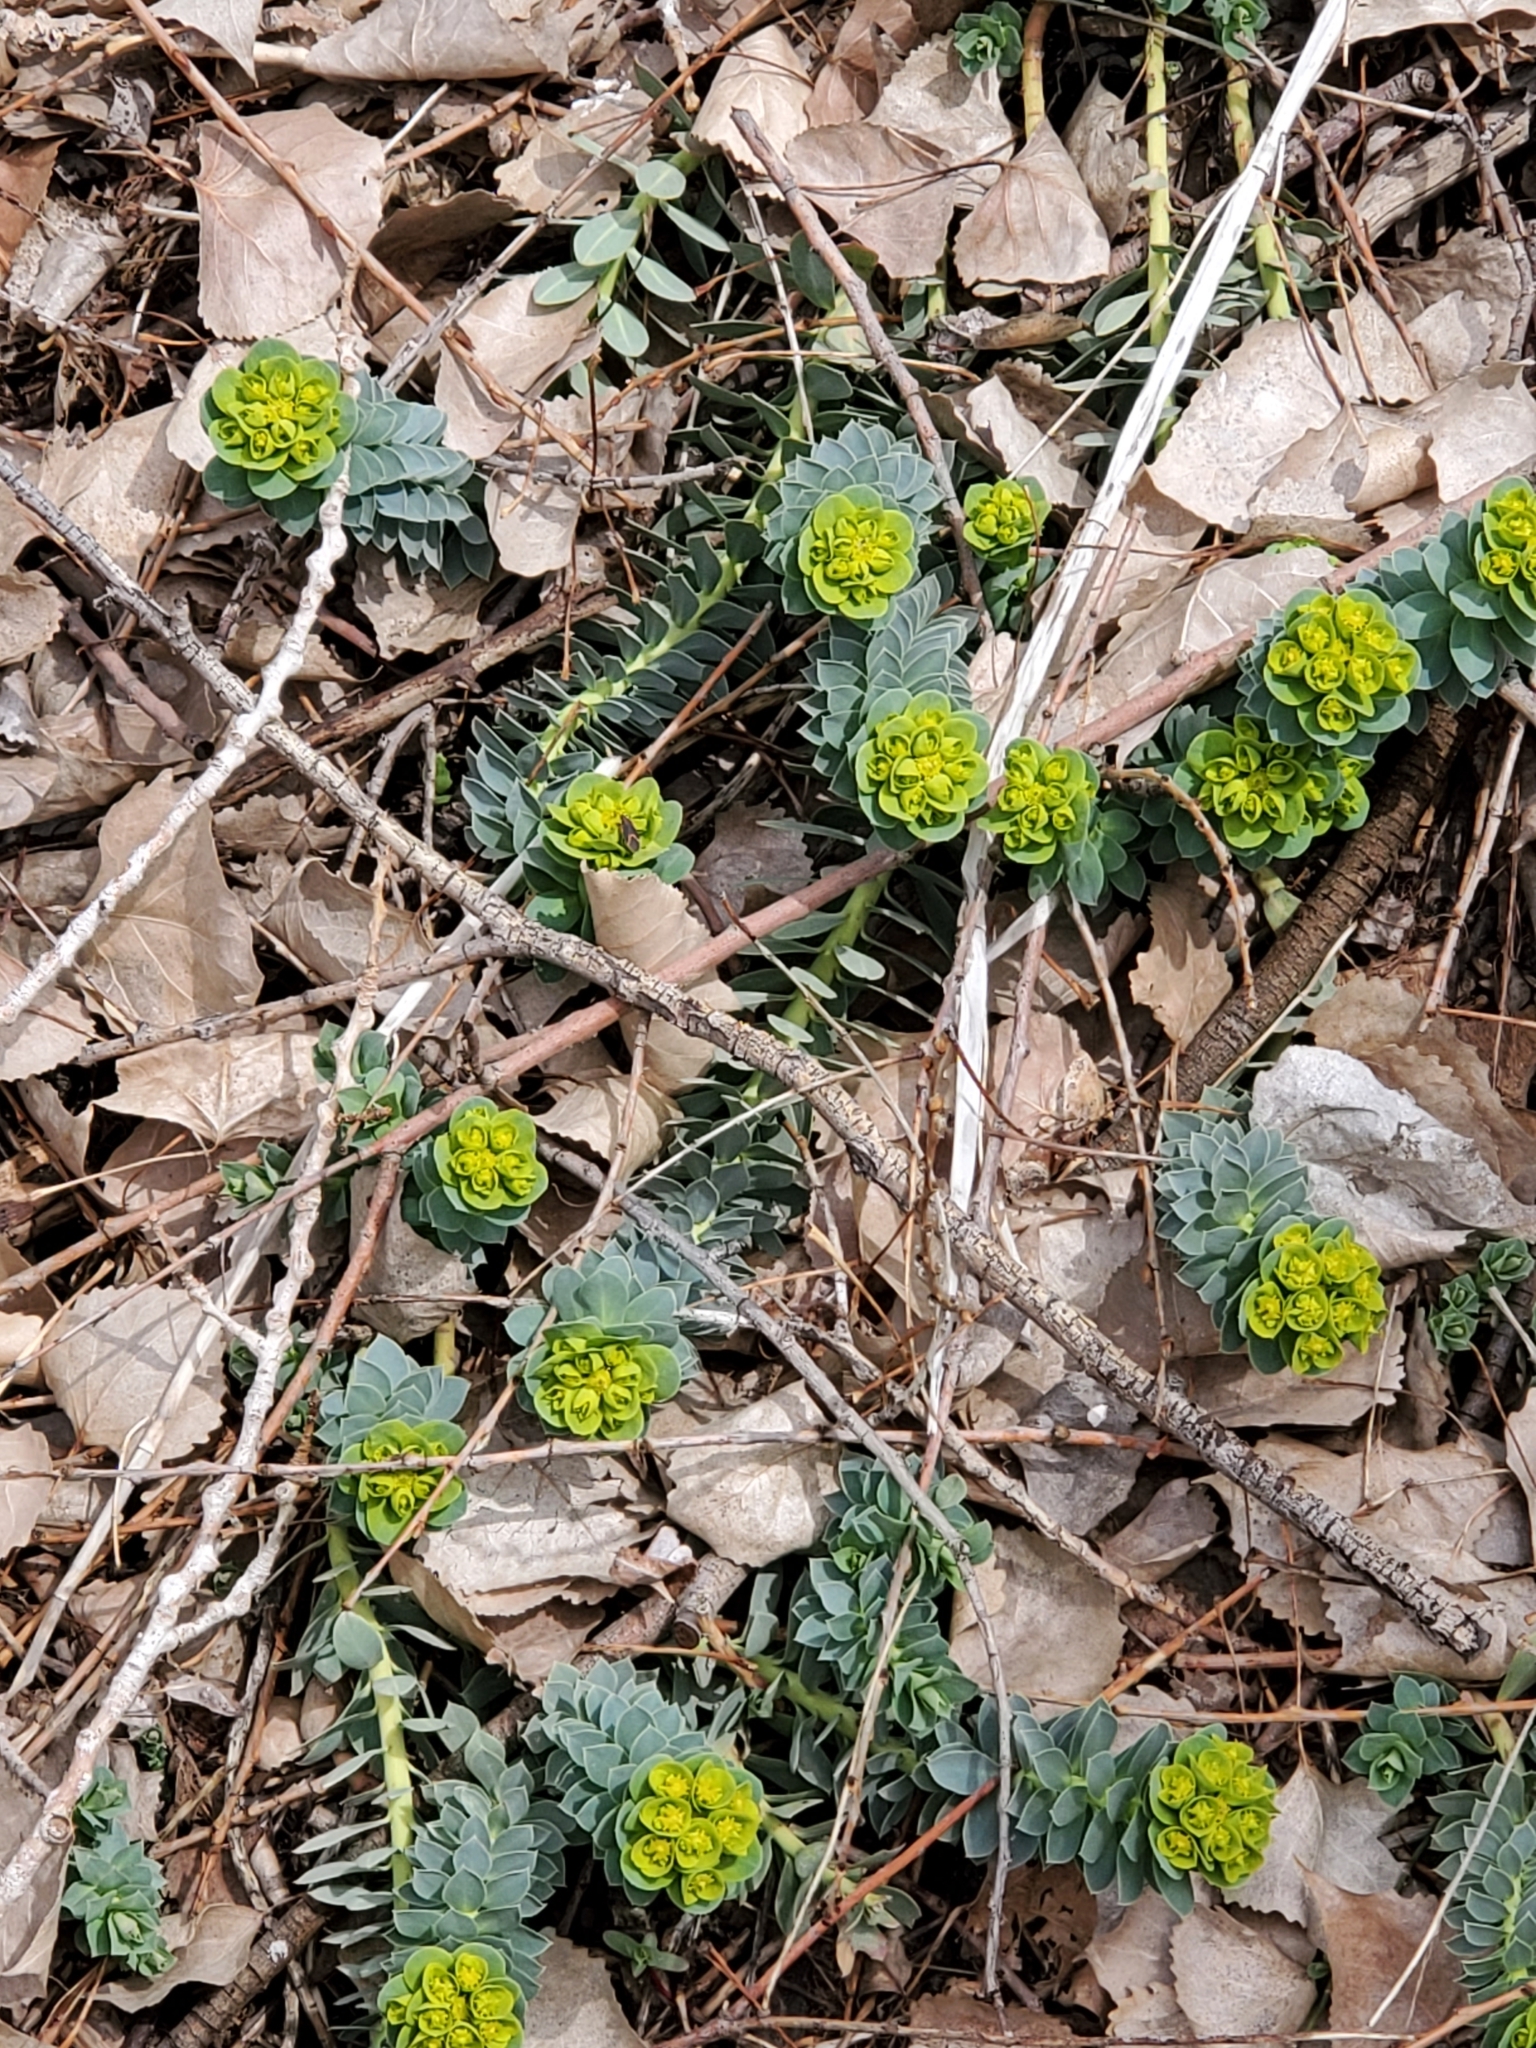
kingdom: Plantae
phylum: Tracheophyta
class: Magnoliopsida
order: Malpighiales
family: Euphorbiaceae
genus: Euphorbia
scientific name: Euphorbia myrsinites
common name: Myrtle spurge
